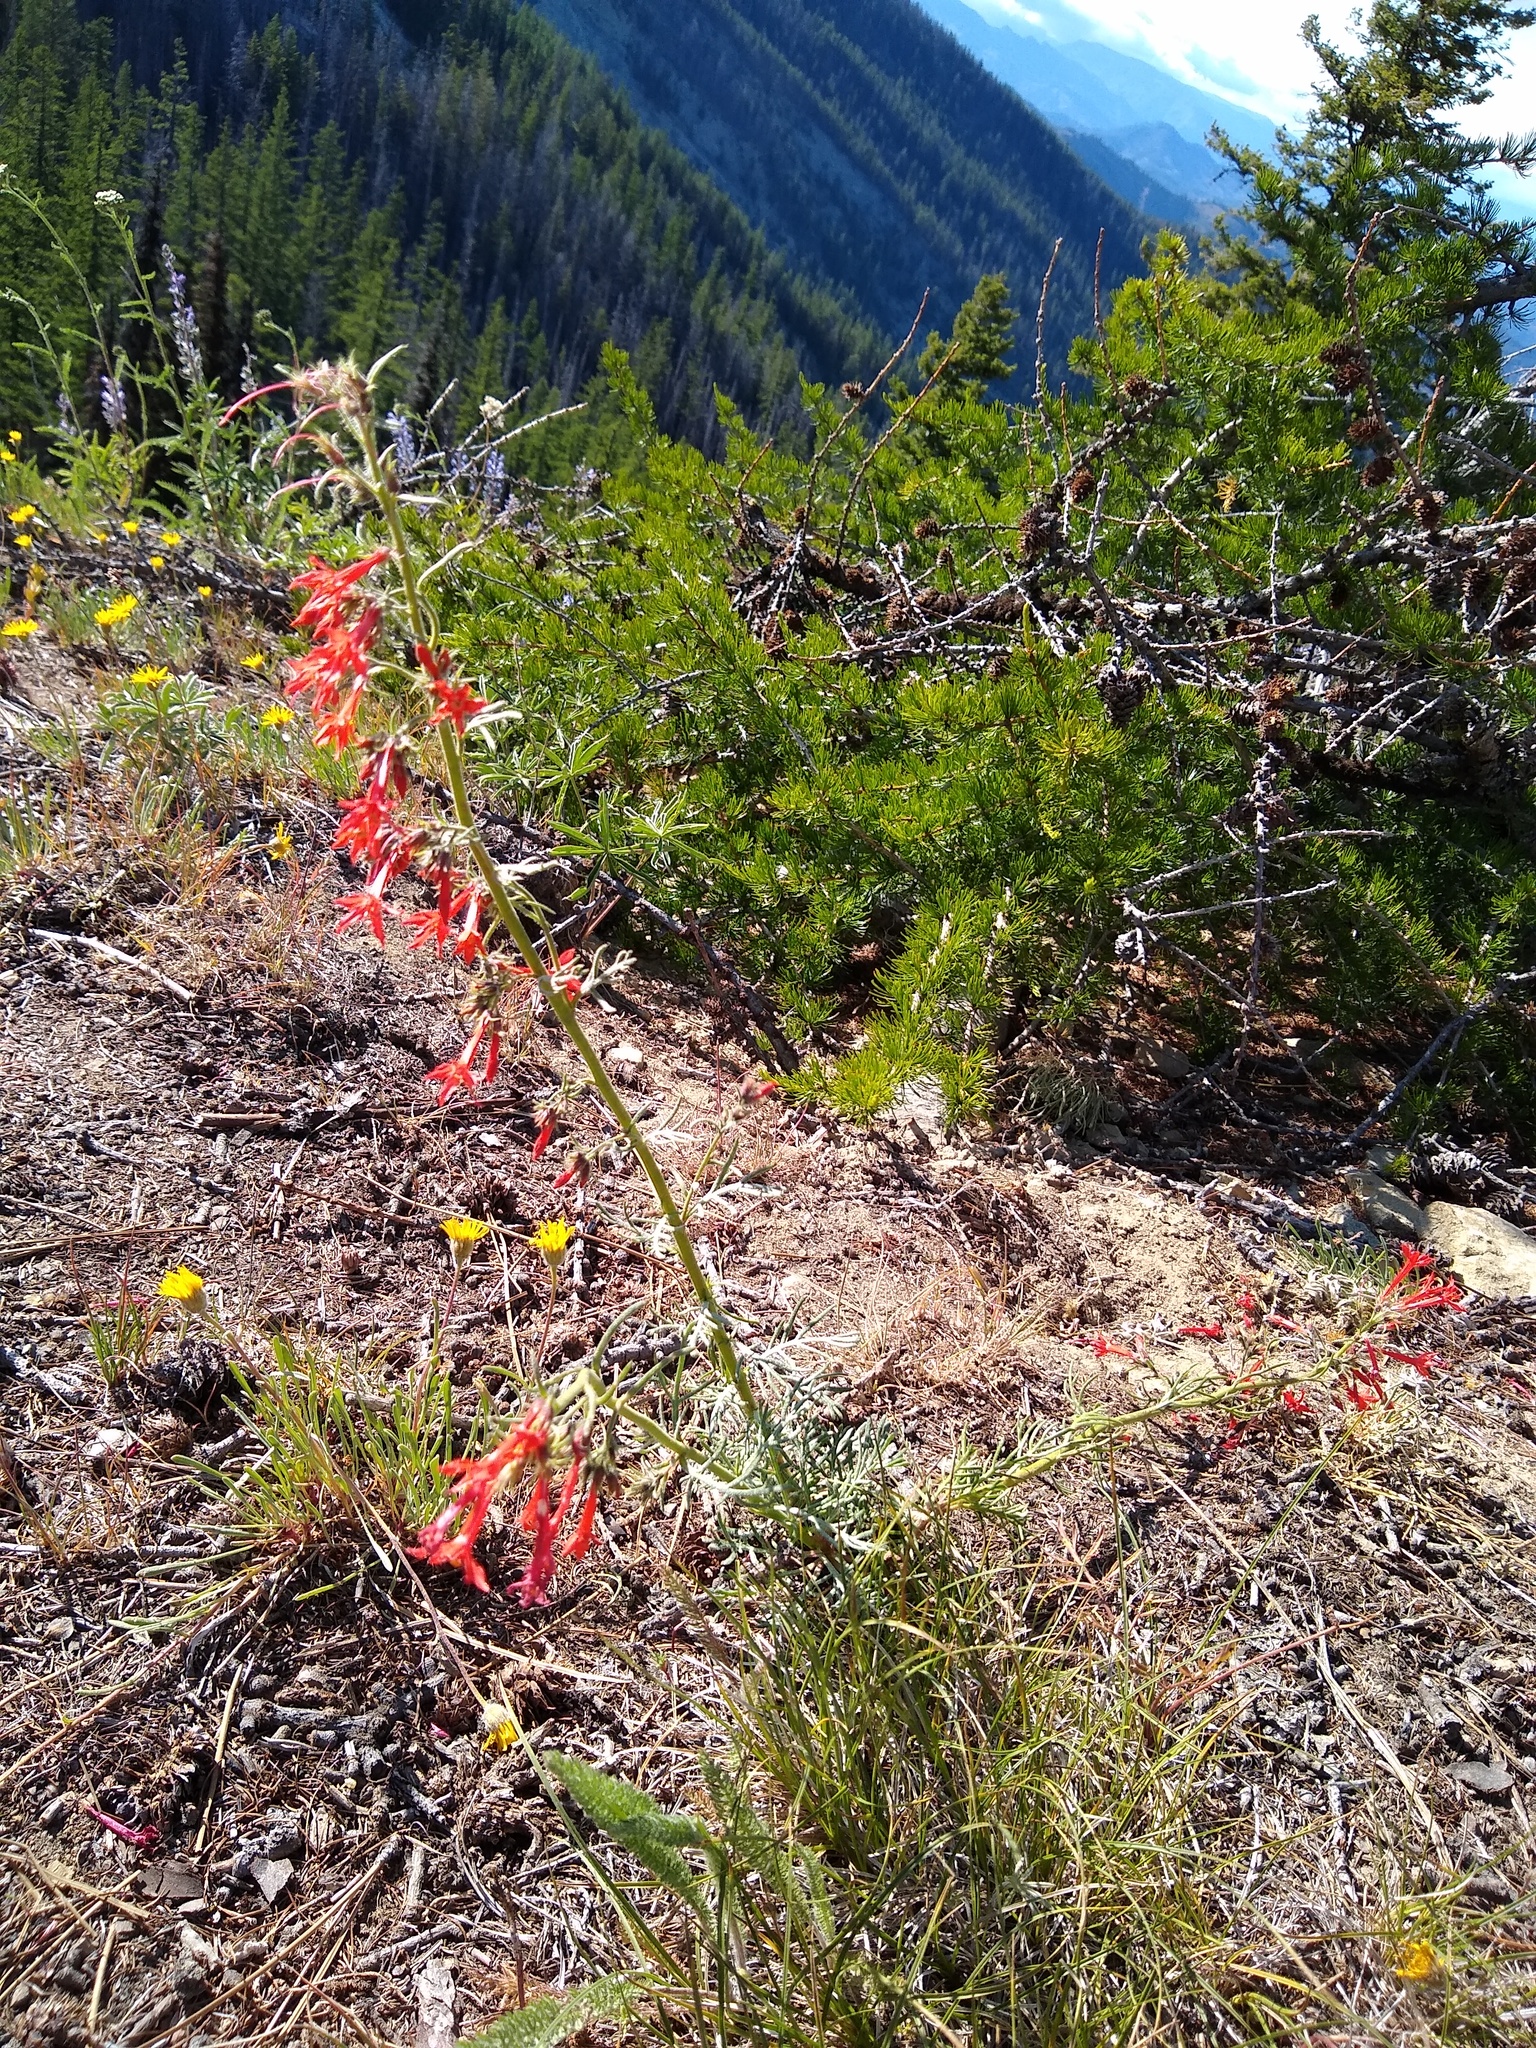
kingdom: Plantae
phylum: Tracheophyta
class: Magnoliopsida
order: Ericales
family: Polemoniaceae
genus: Ipomopsis
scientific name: Ipomopsis aggregata
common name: Scarlet gilia
